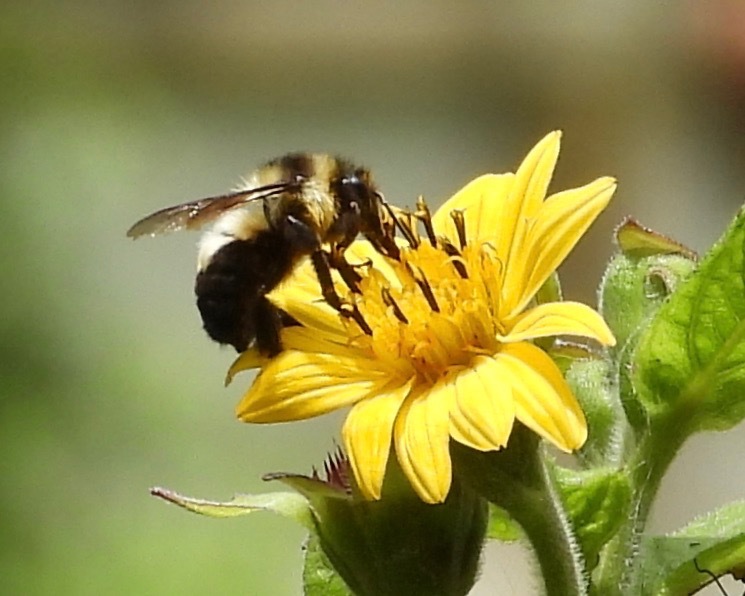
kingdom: Animalia
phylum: Arthropoda
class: Insecta
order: Hymenoptera
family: Apidae
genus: Bombus
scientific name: Bombus wilmattae
